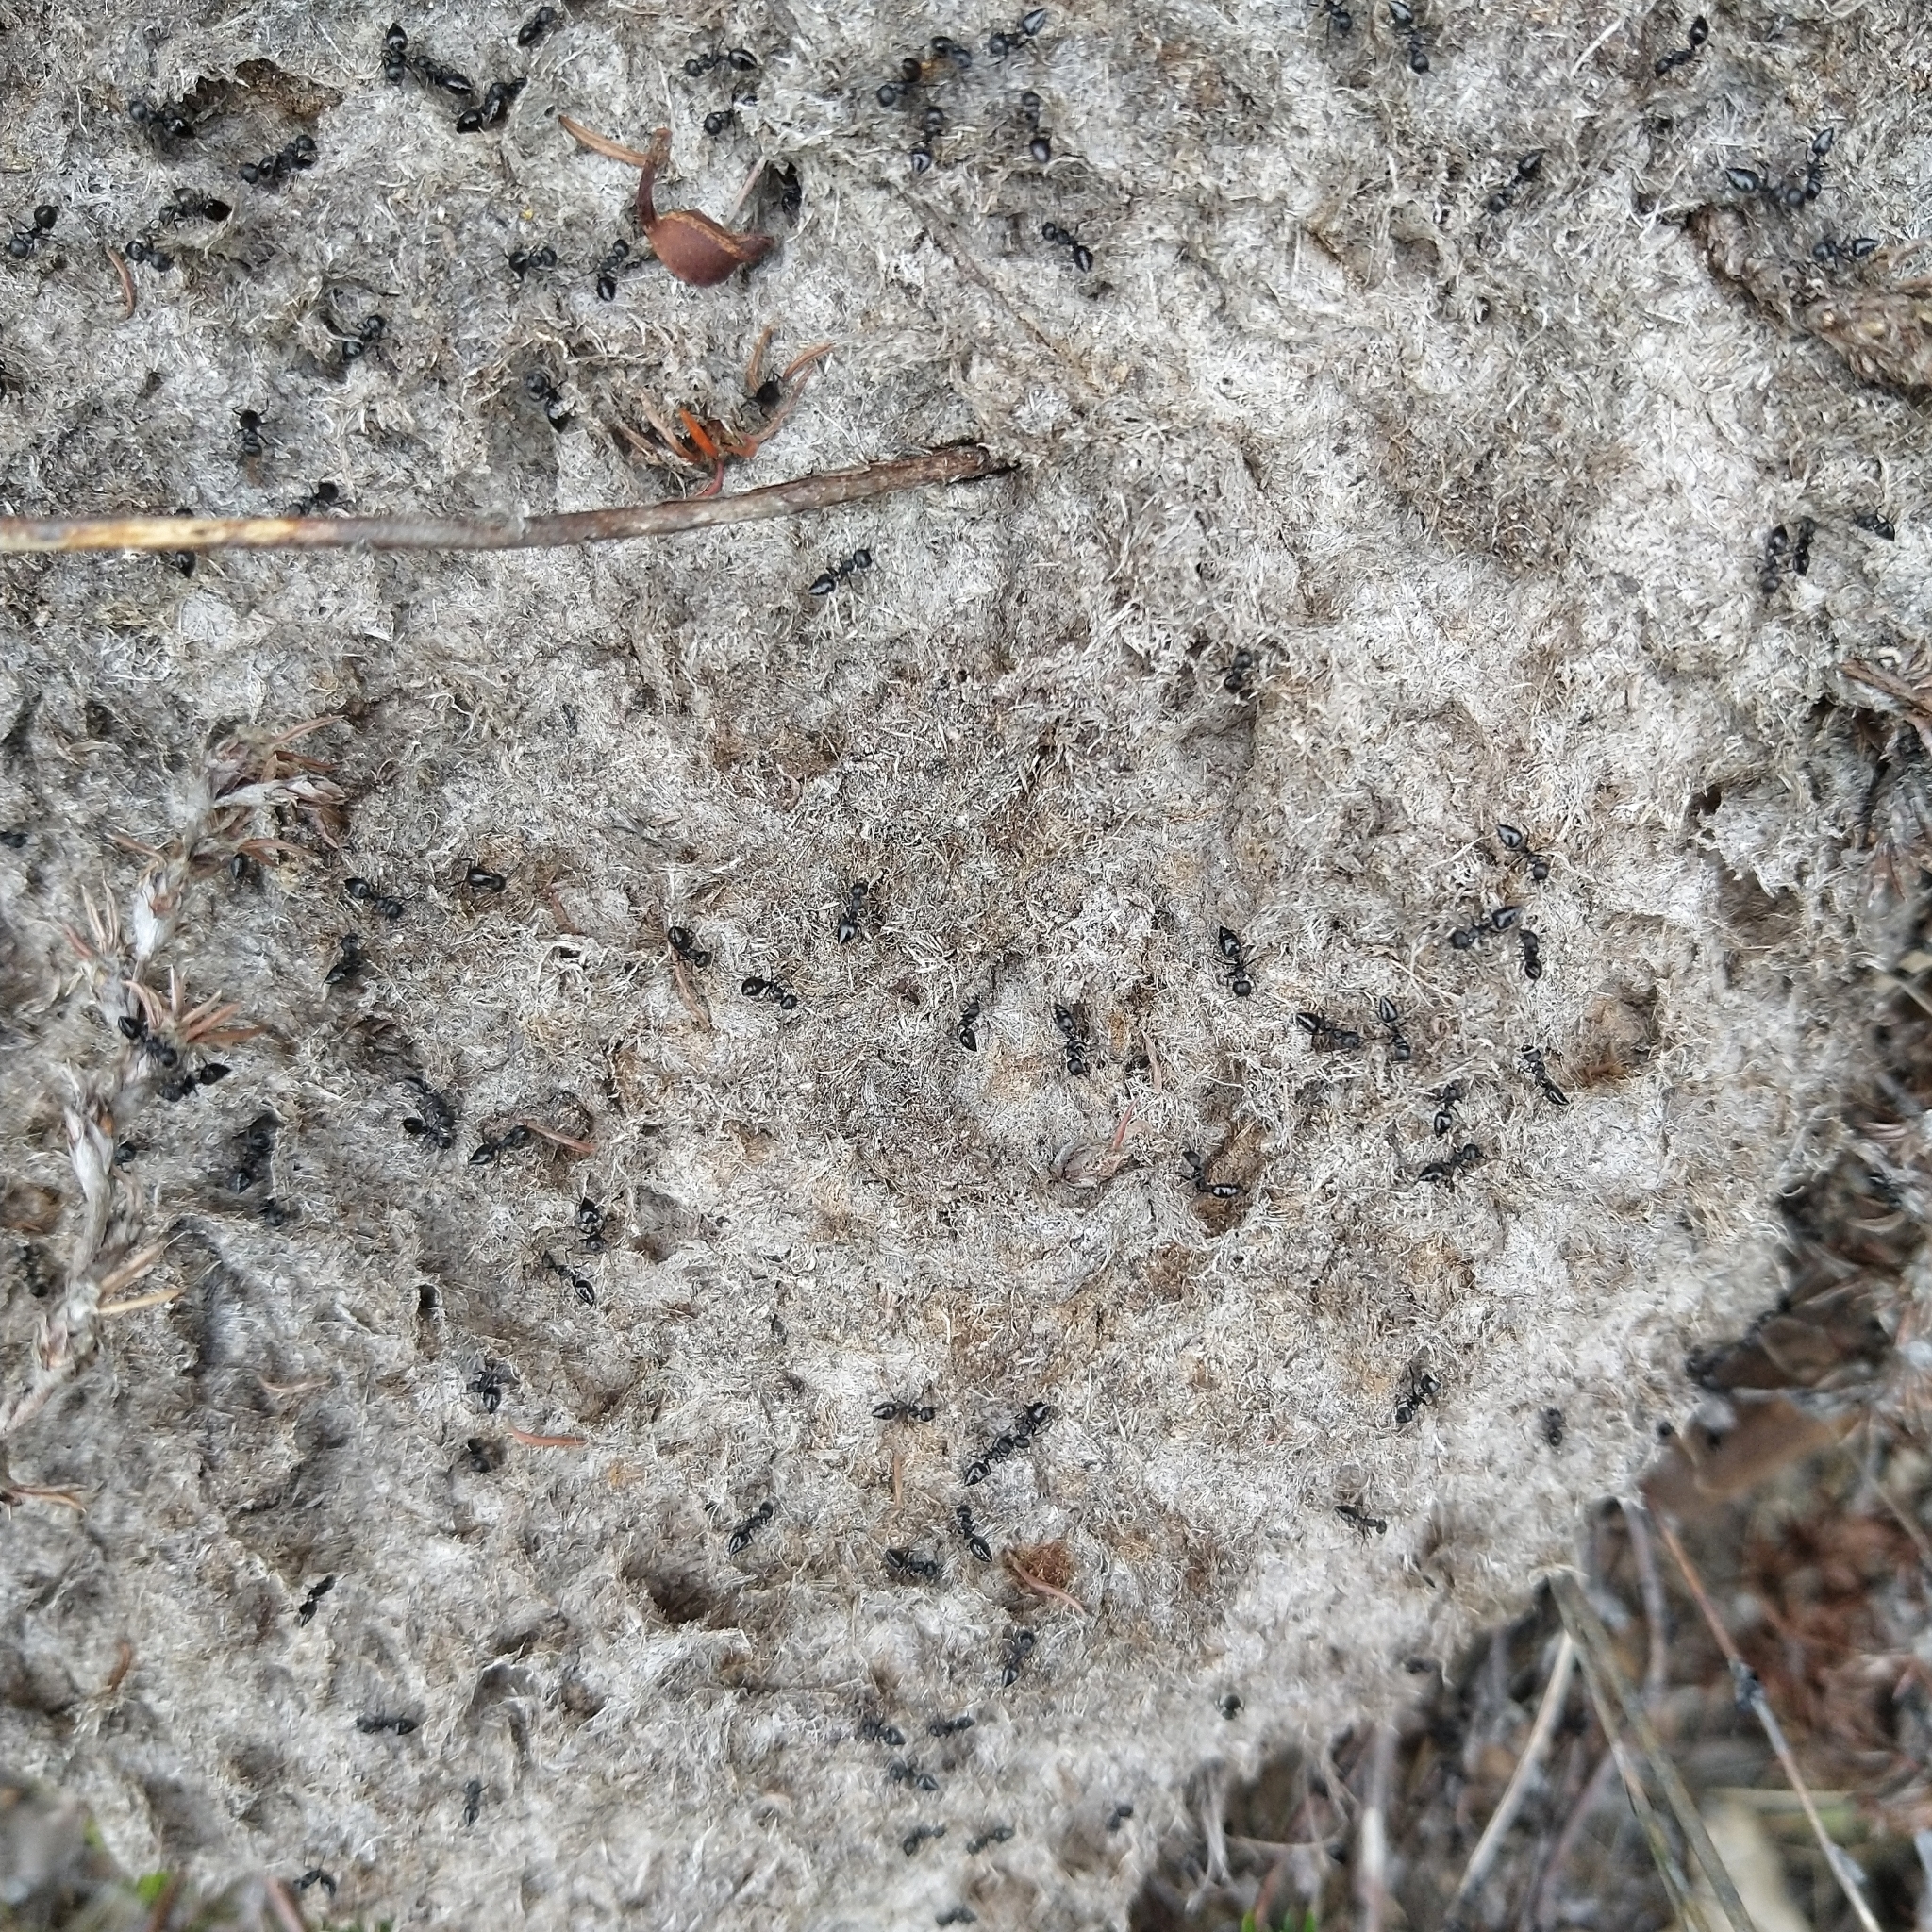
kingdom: Animalia
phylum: Arthropoda
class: Insecta
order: Hymenoptera
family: Formicidae
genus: Crematogaster
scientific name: Crematogaster peringueyi
